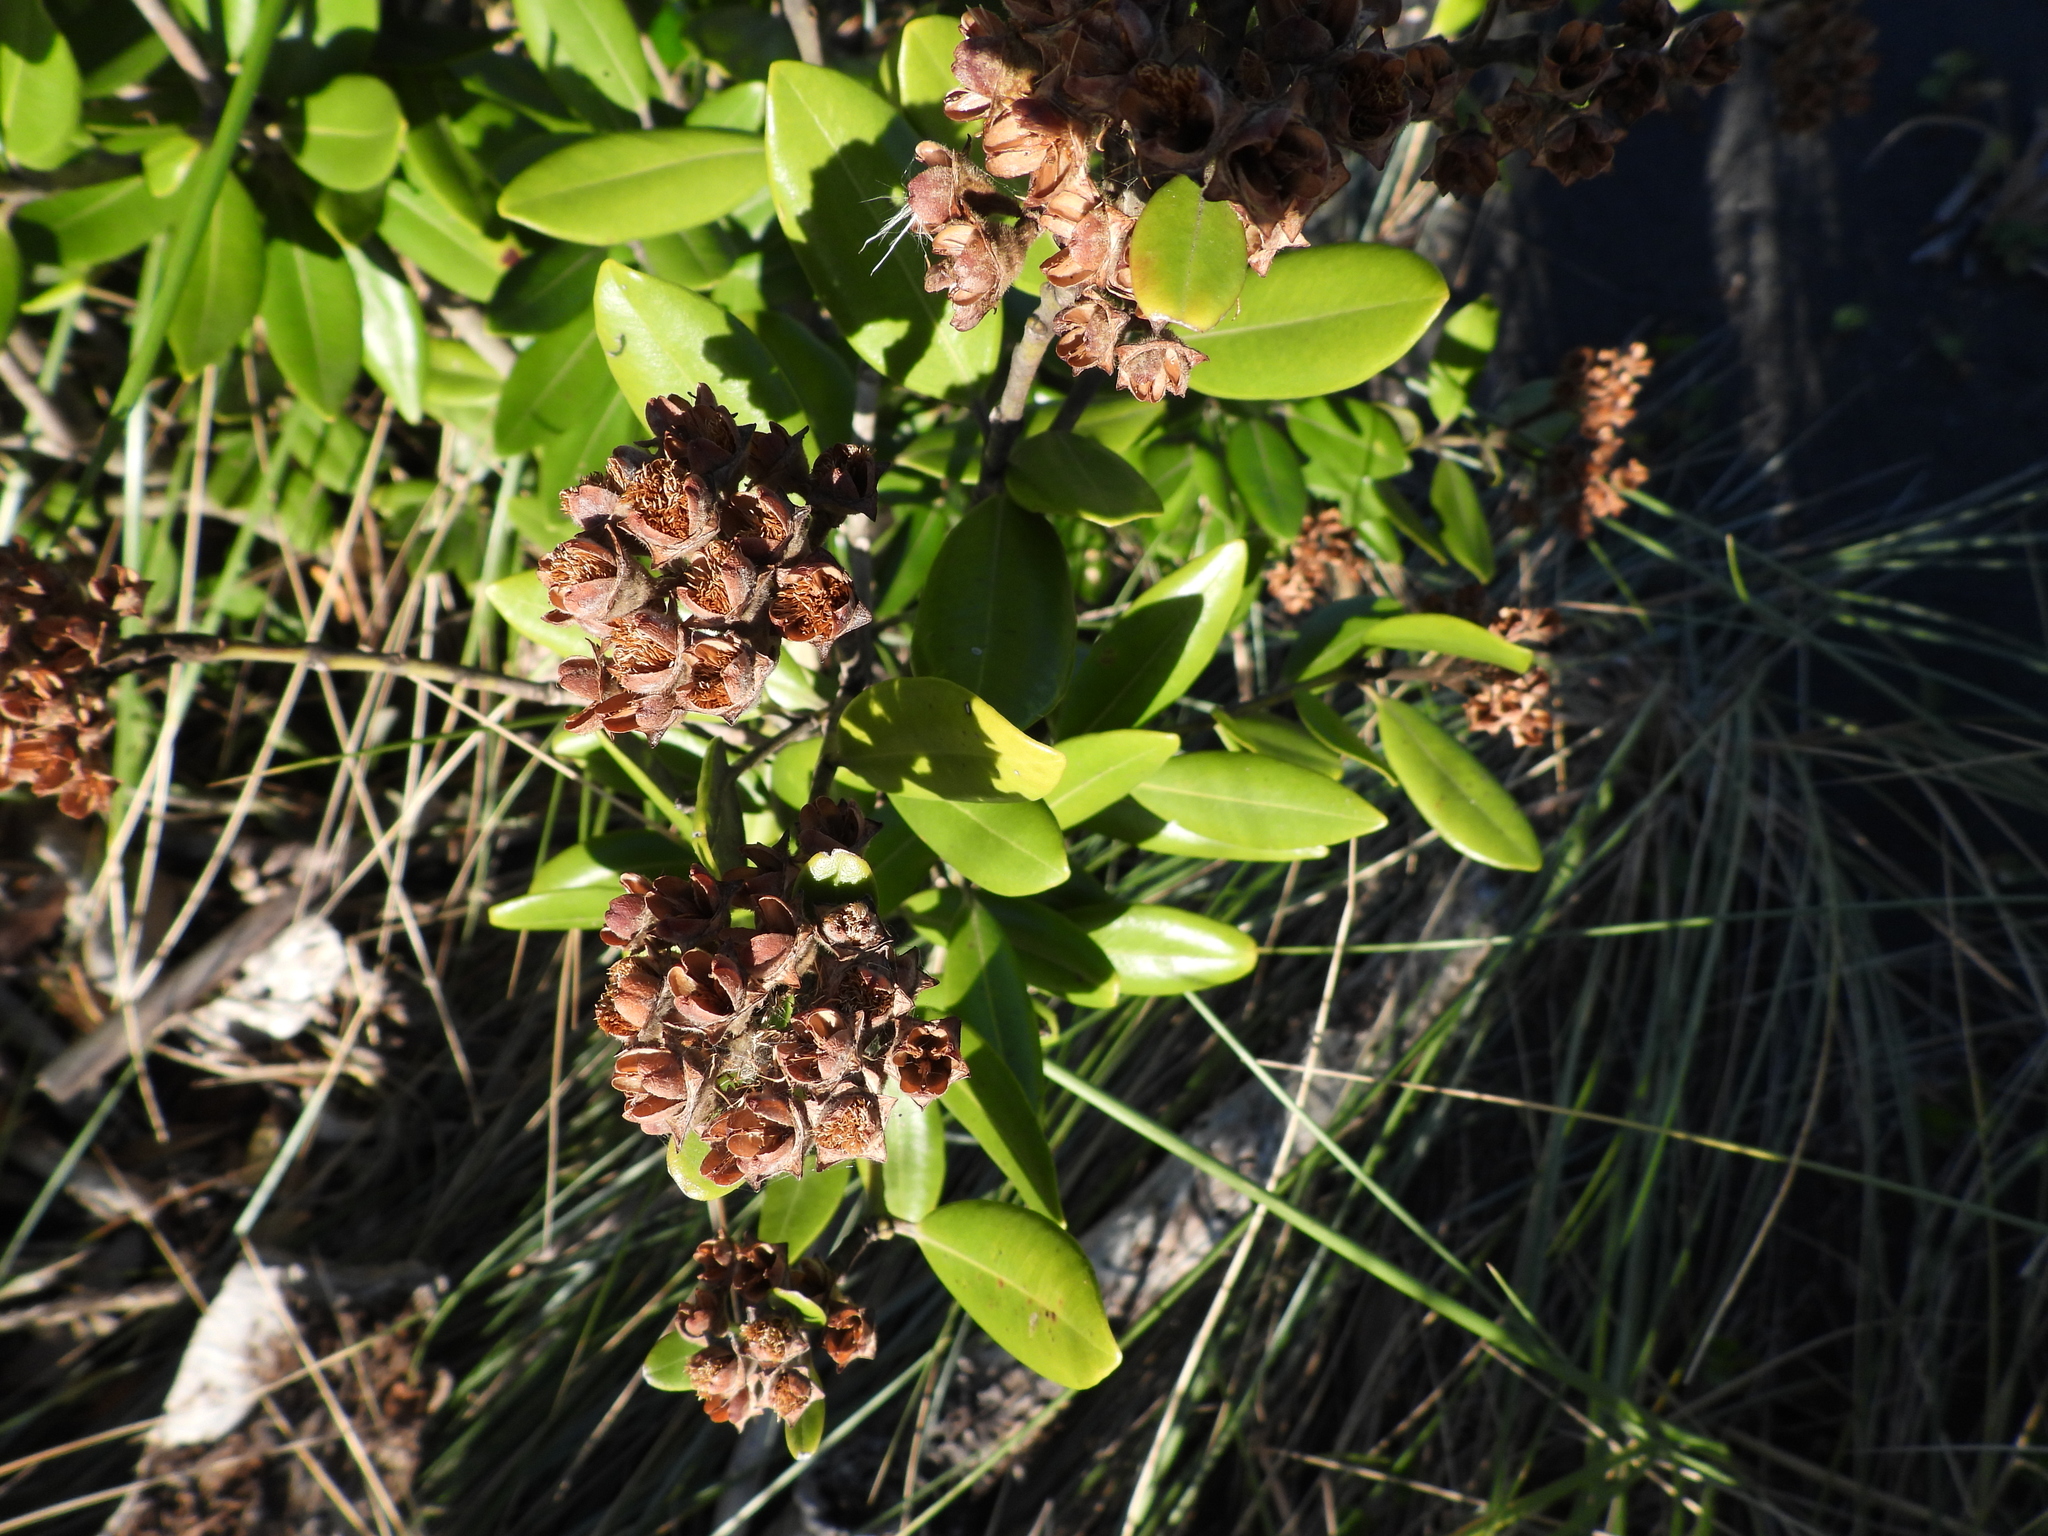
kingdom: Plantae
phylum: Tracheophyta
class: Magnoliopsida
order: Myrtales
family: Myrtaceae
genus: Metrosideros
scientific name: Metrosideros excelsa
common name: New zealand christmastree
